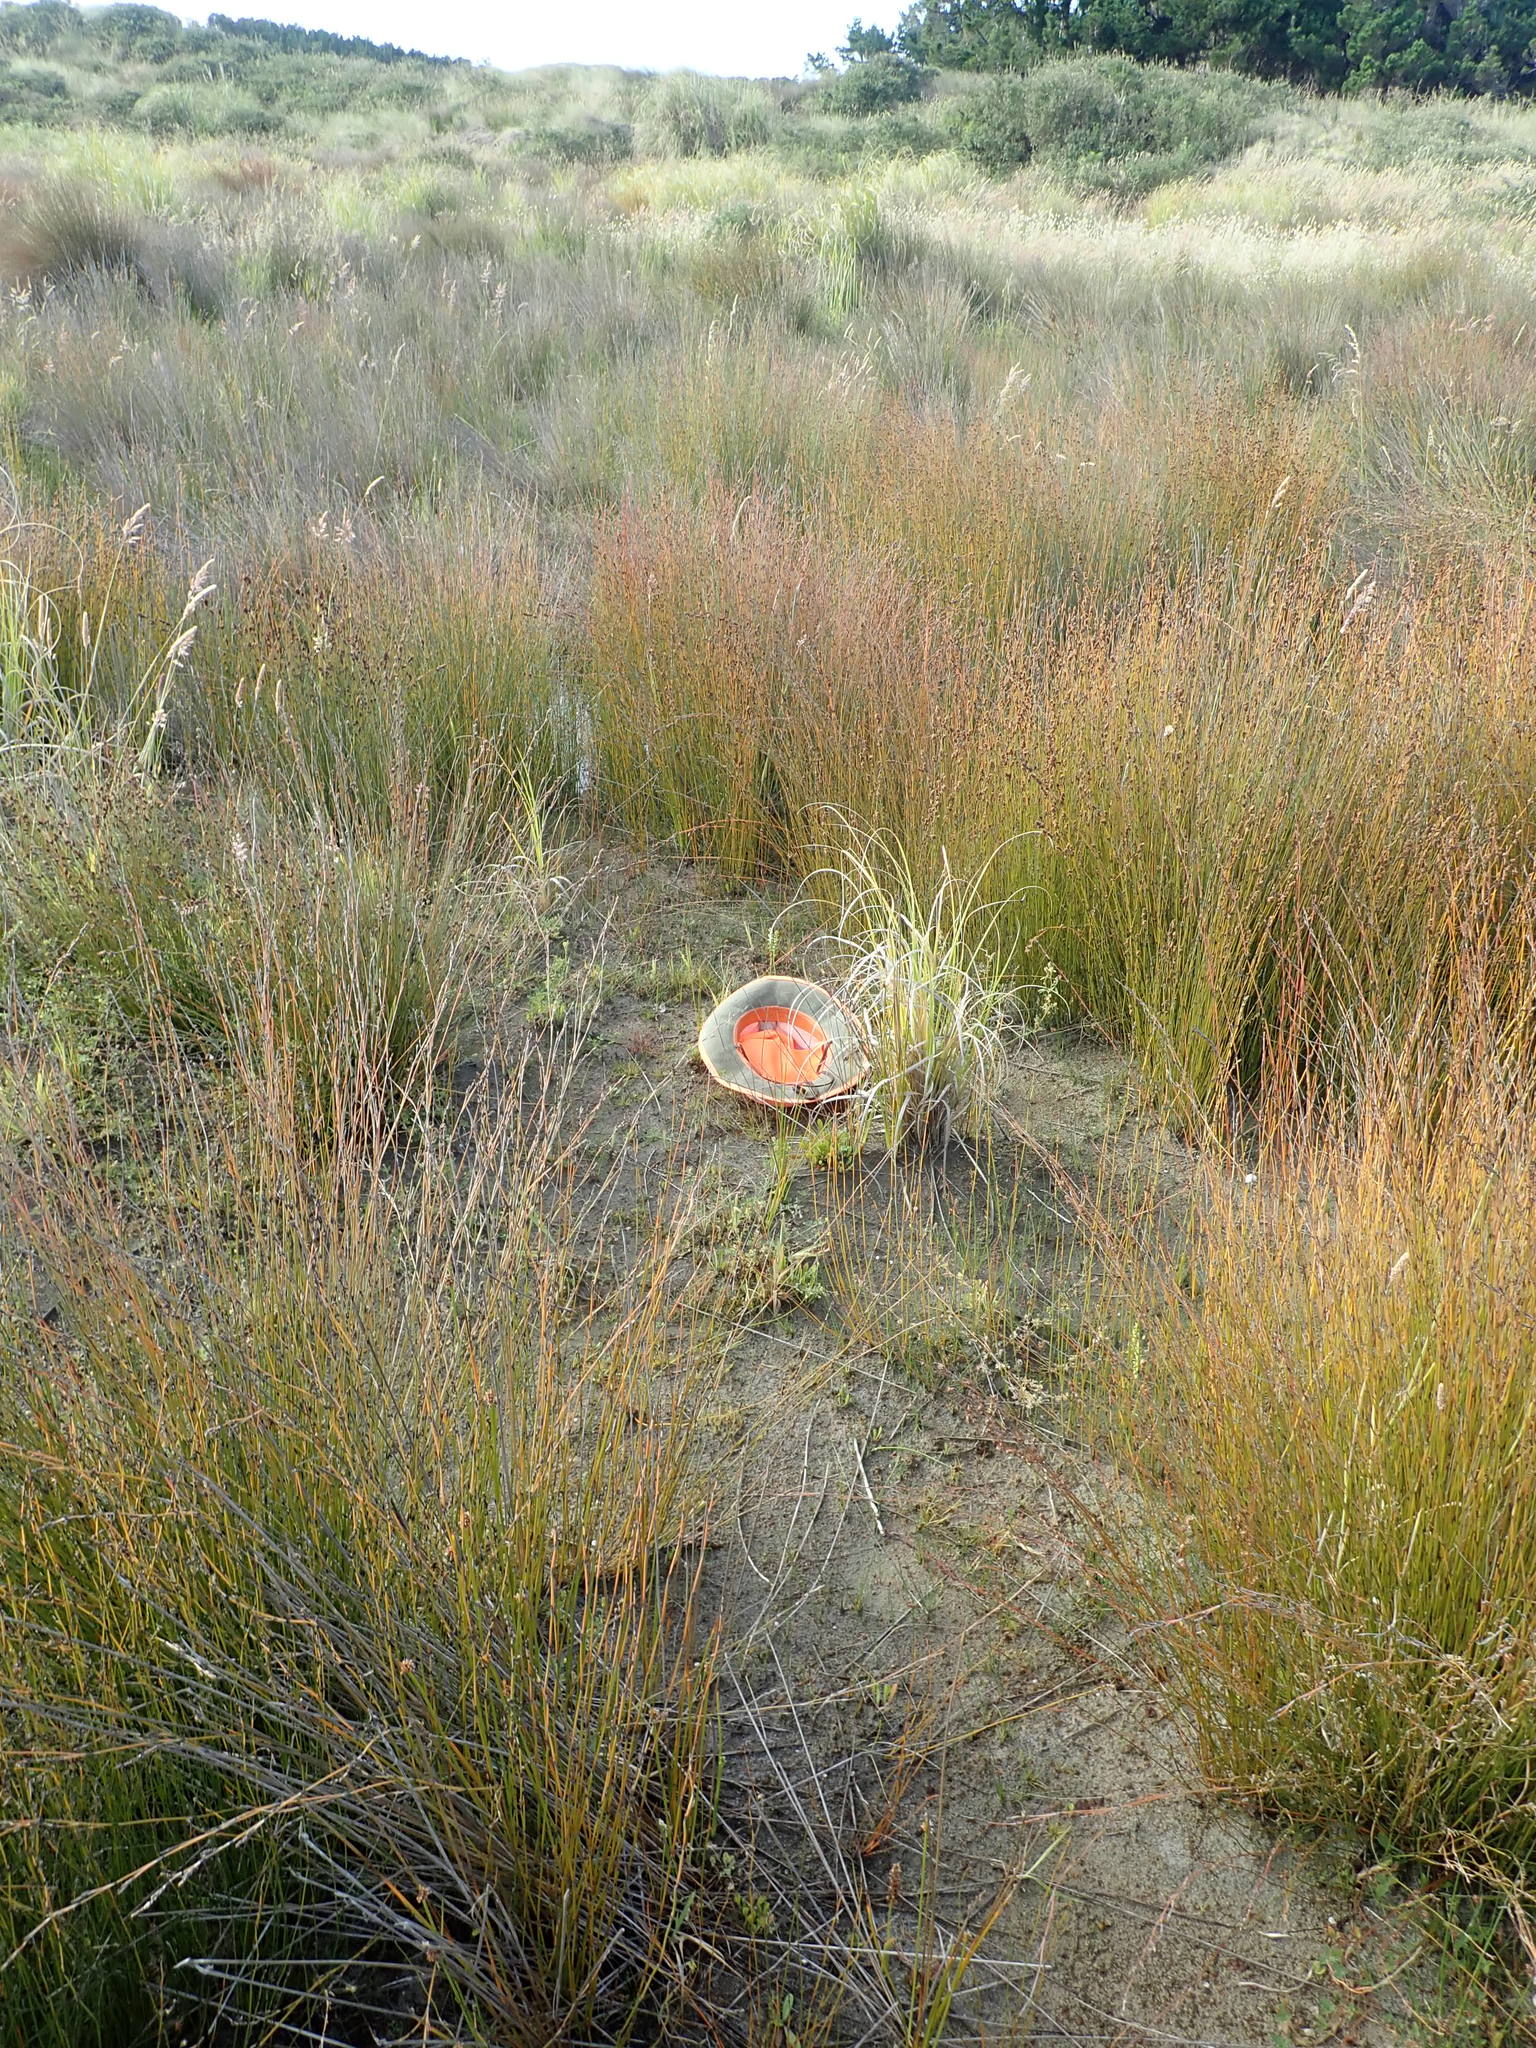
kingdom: Plantae
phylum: Tracheophyta
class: Liliopsida
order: Asparagales
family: Orchidaceae
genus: Microtis
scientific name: Microtis unifolia
